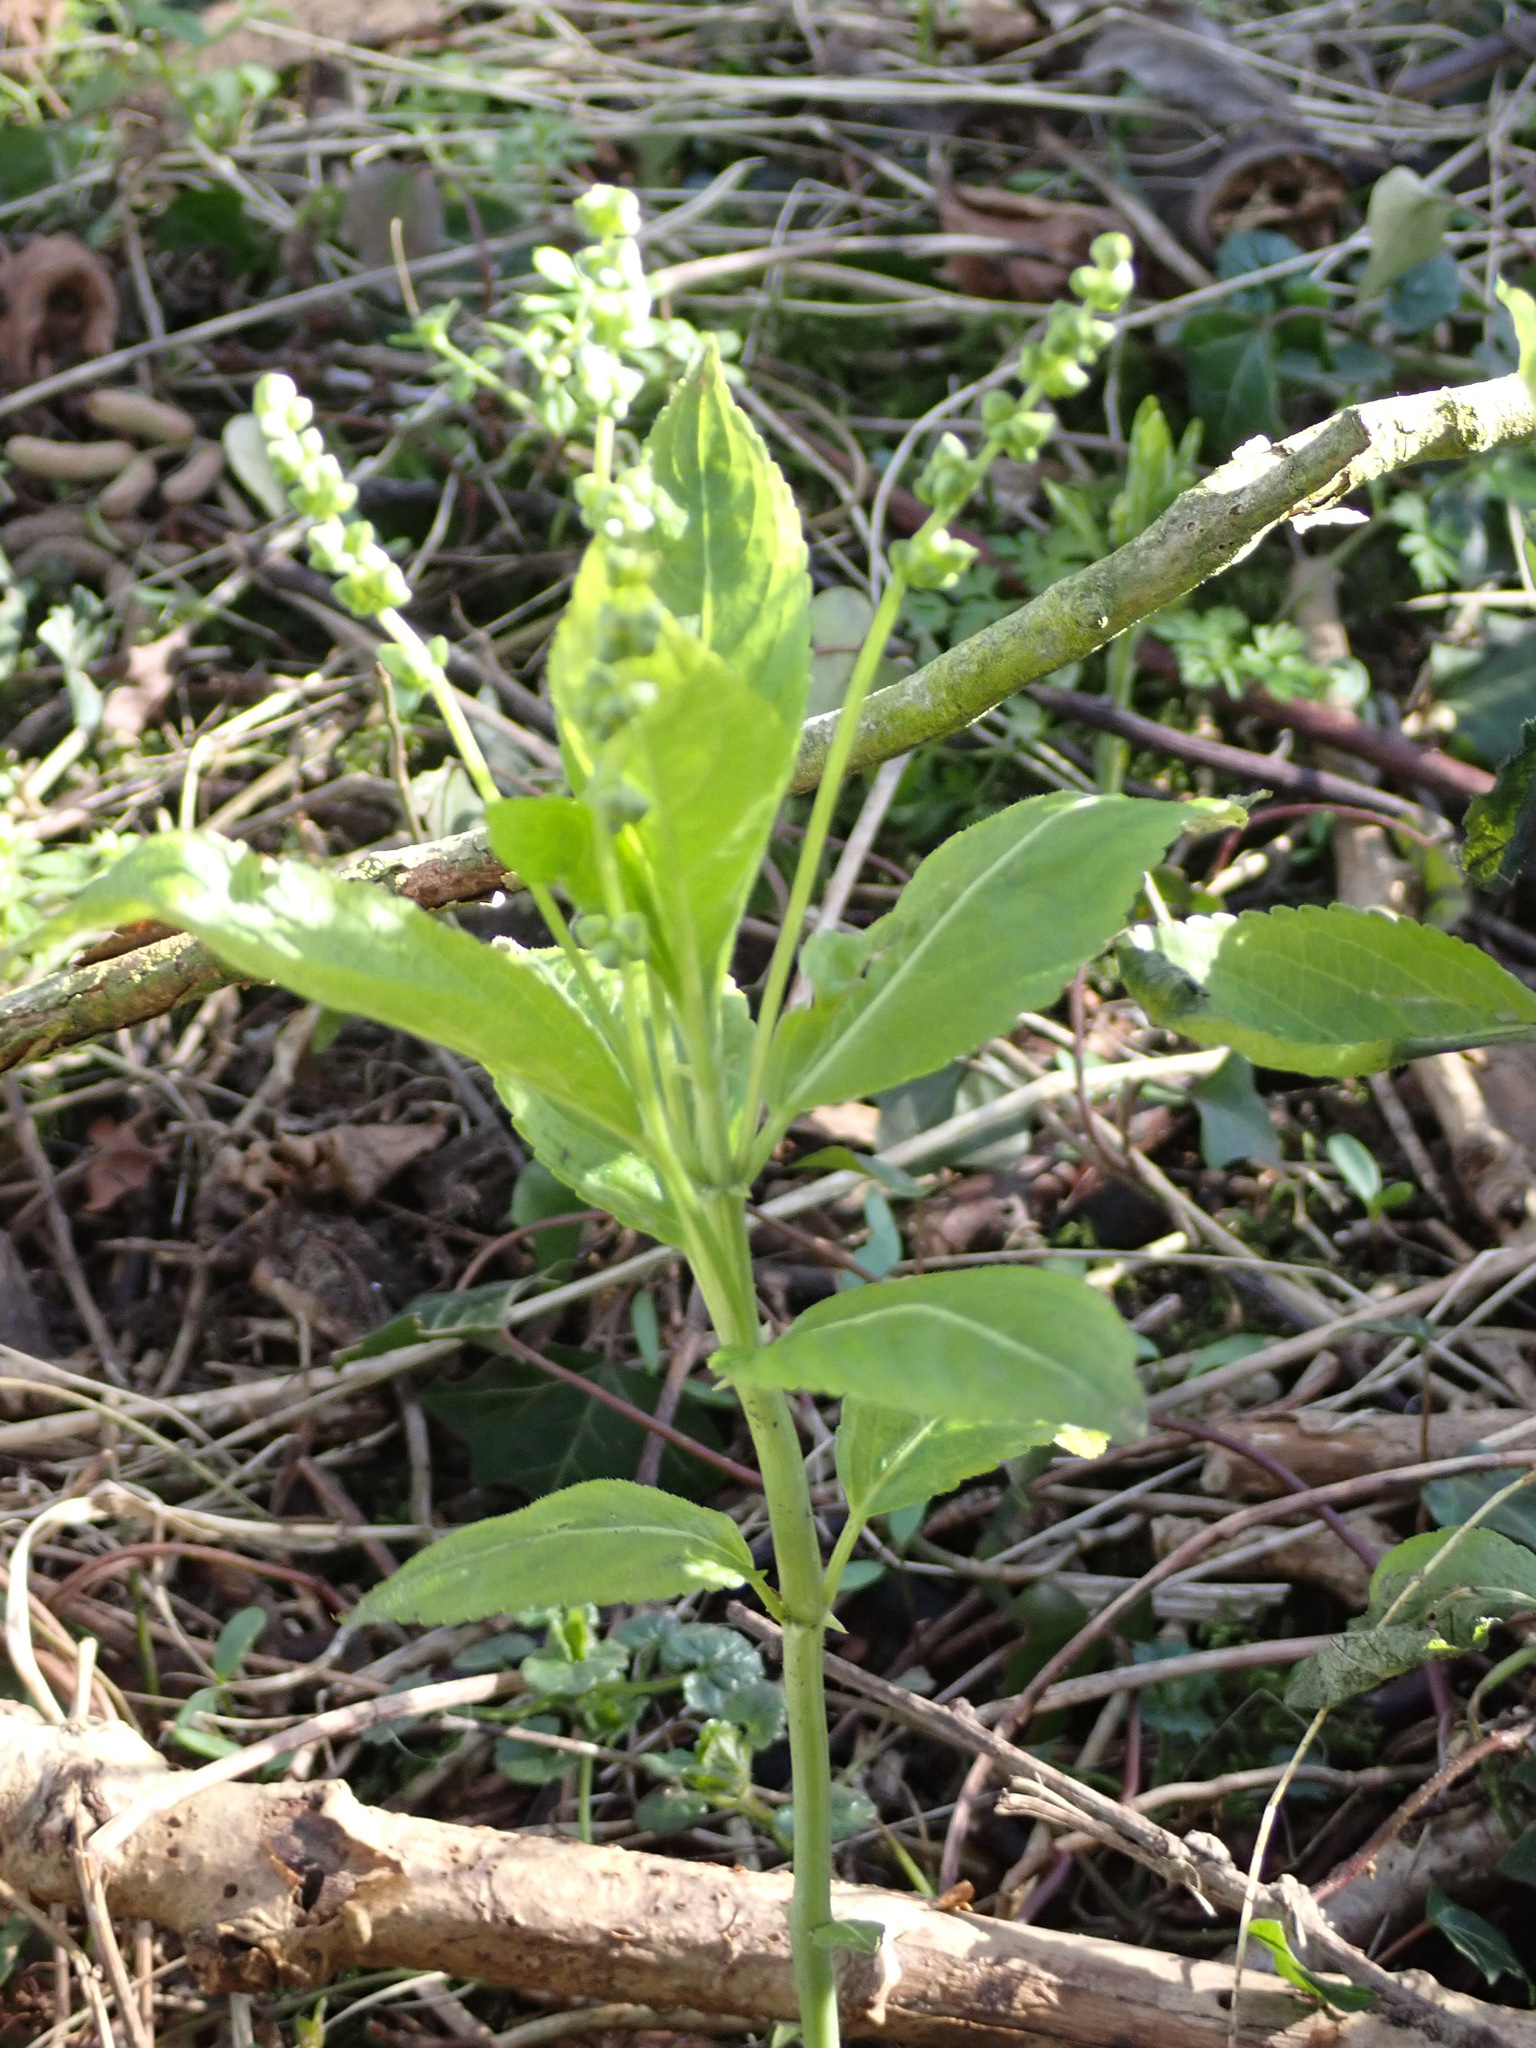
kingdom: Plantae
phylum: Tracheophyta
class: Magnoliopsida
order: Malpighiales
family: Euphorbiaceae
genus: Mercurialis
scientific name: Mercurialis perennis
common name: Dog mercury
